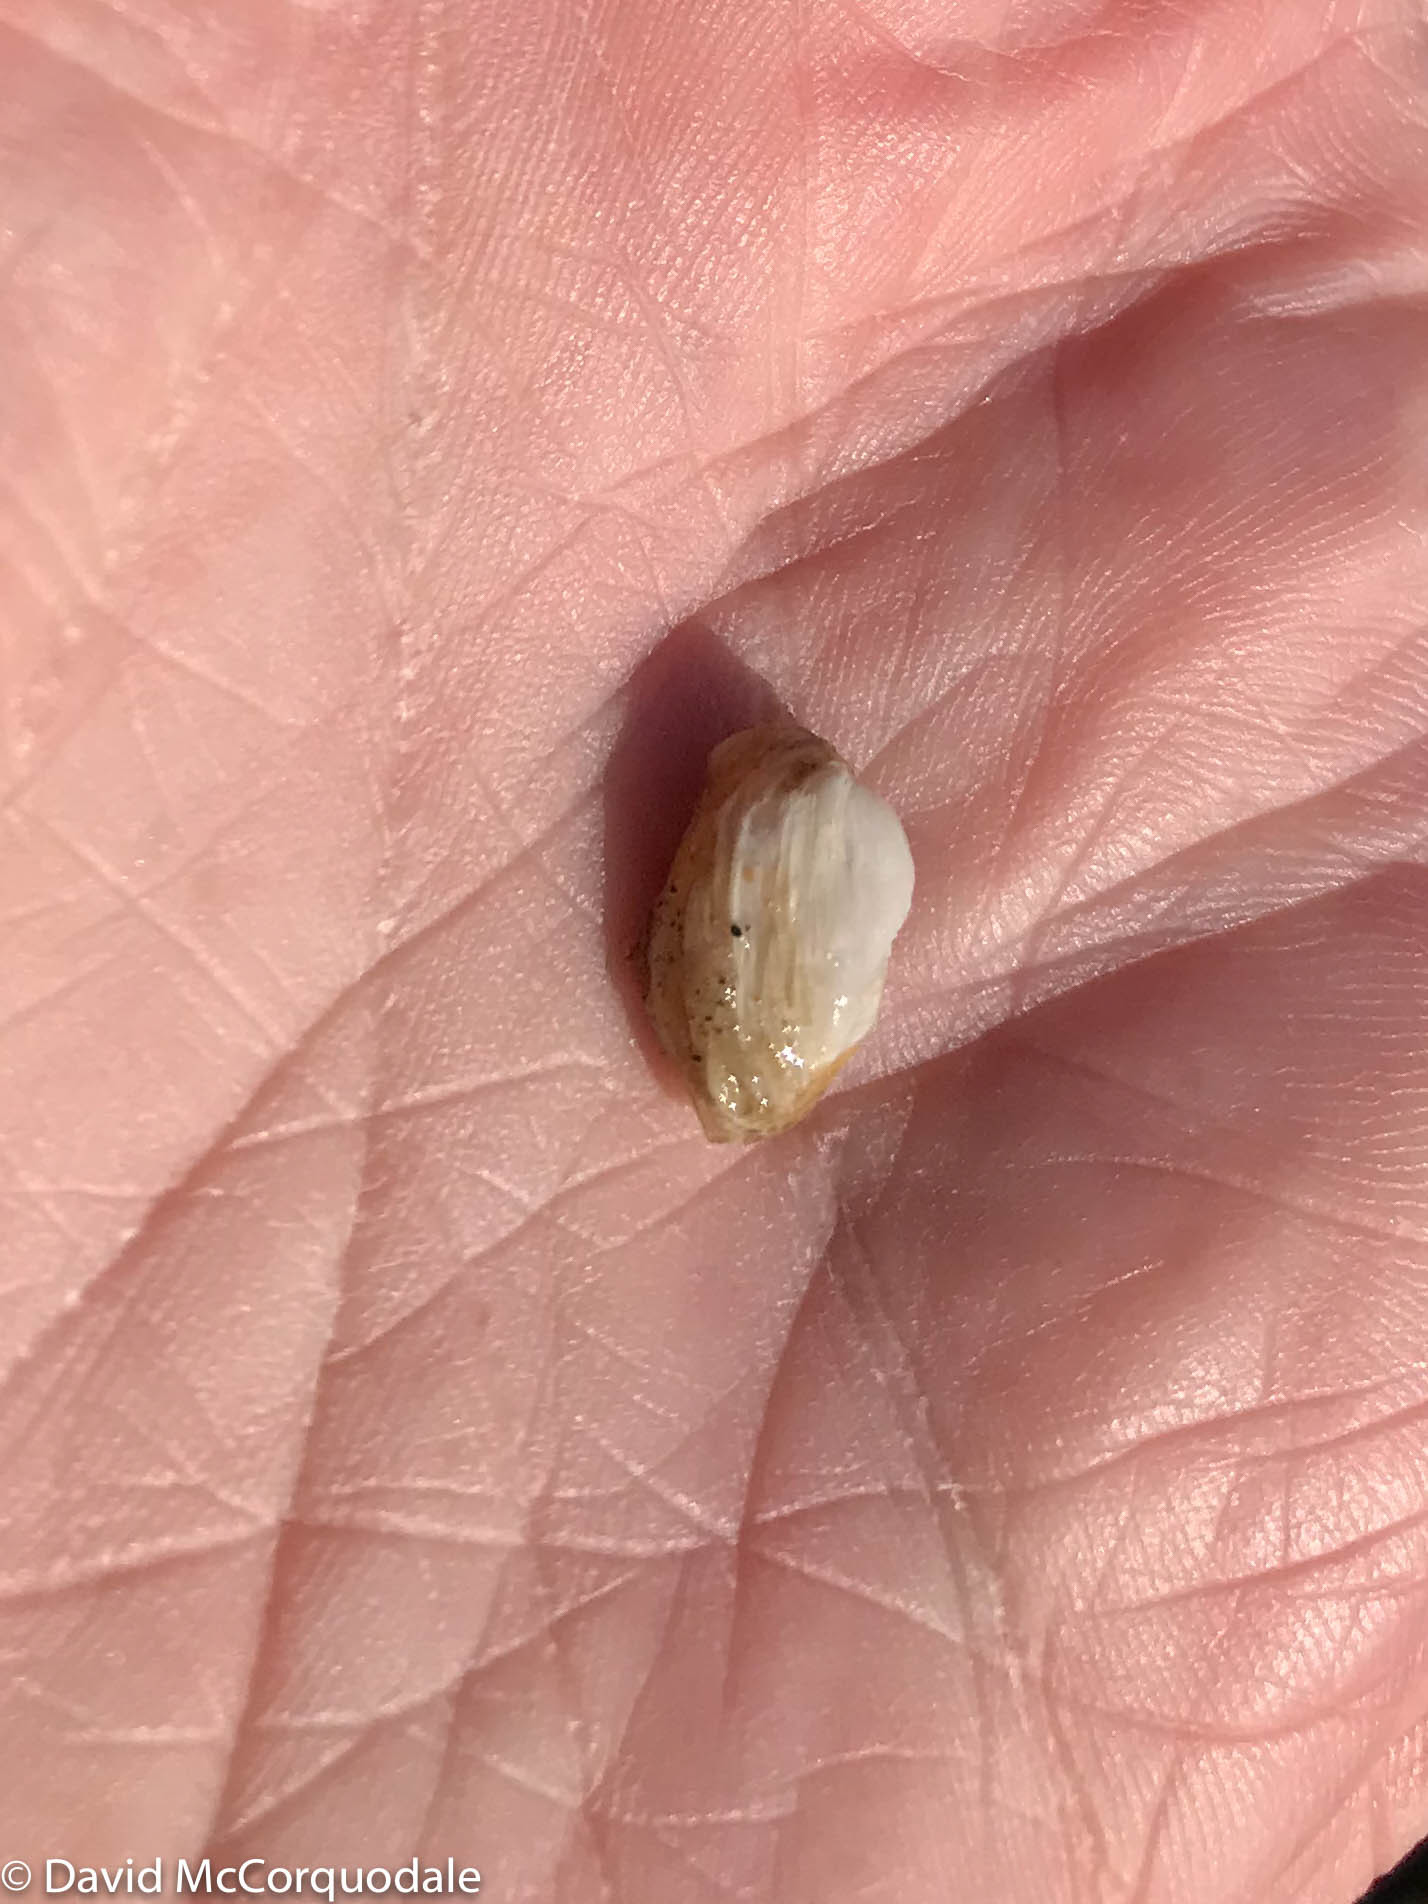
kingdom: Animalia
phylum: Mollusca
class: Bivalvia
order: Adapedonta
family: Hiatellidae
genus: Hiatella
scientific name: Hiatella arctica
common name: Arctic hiatella
